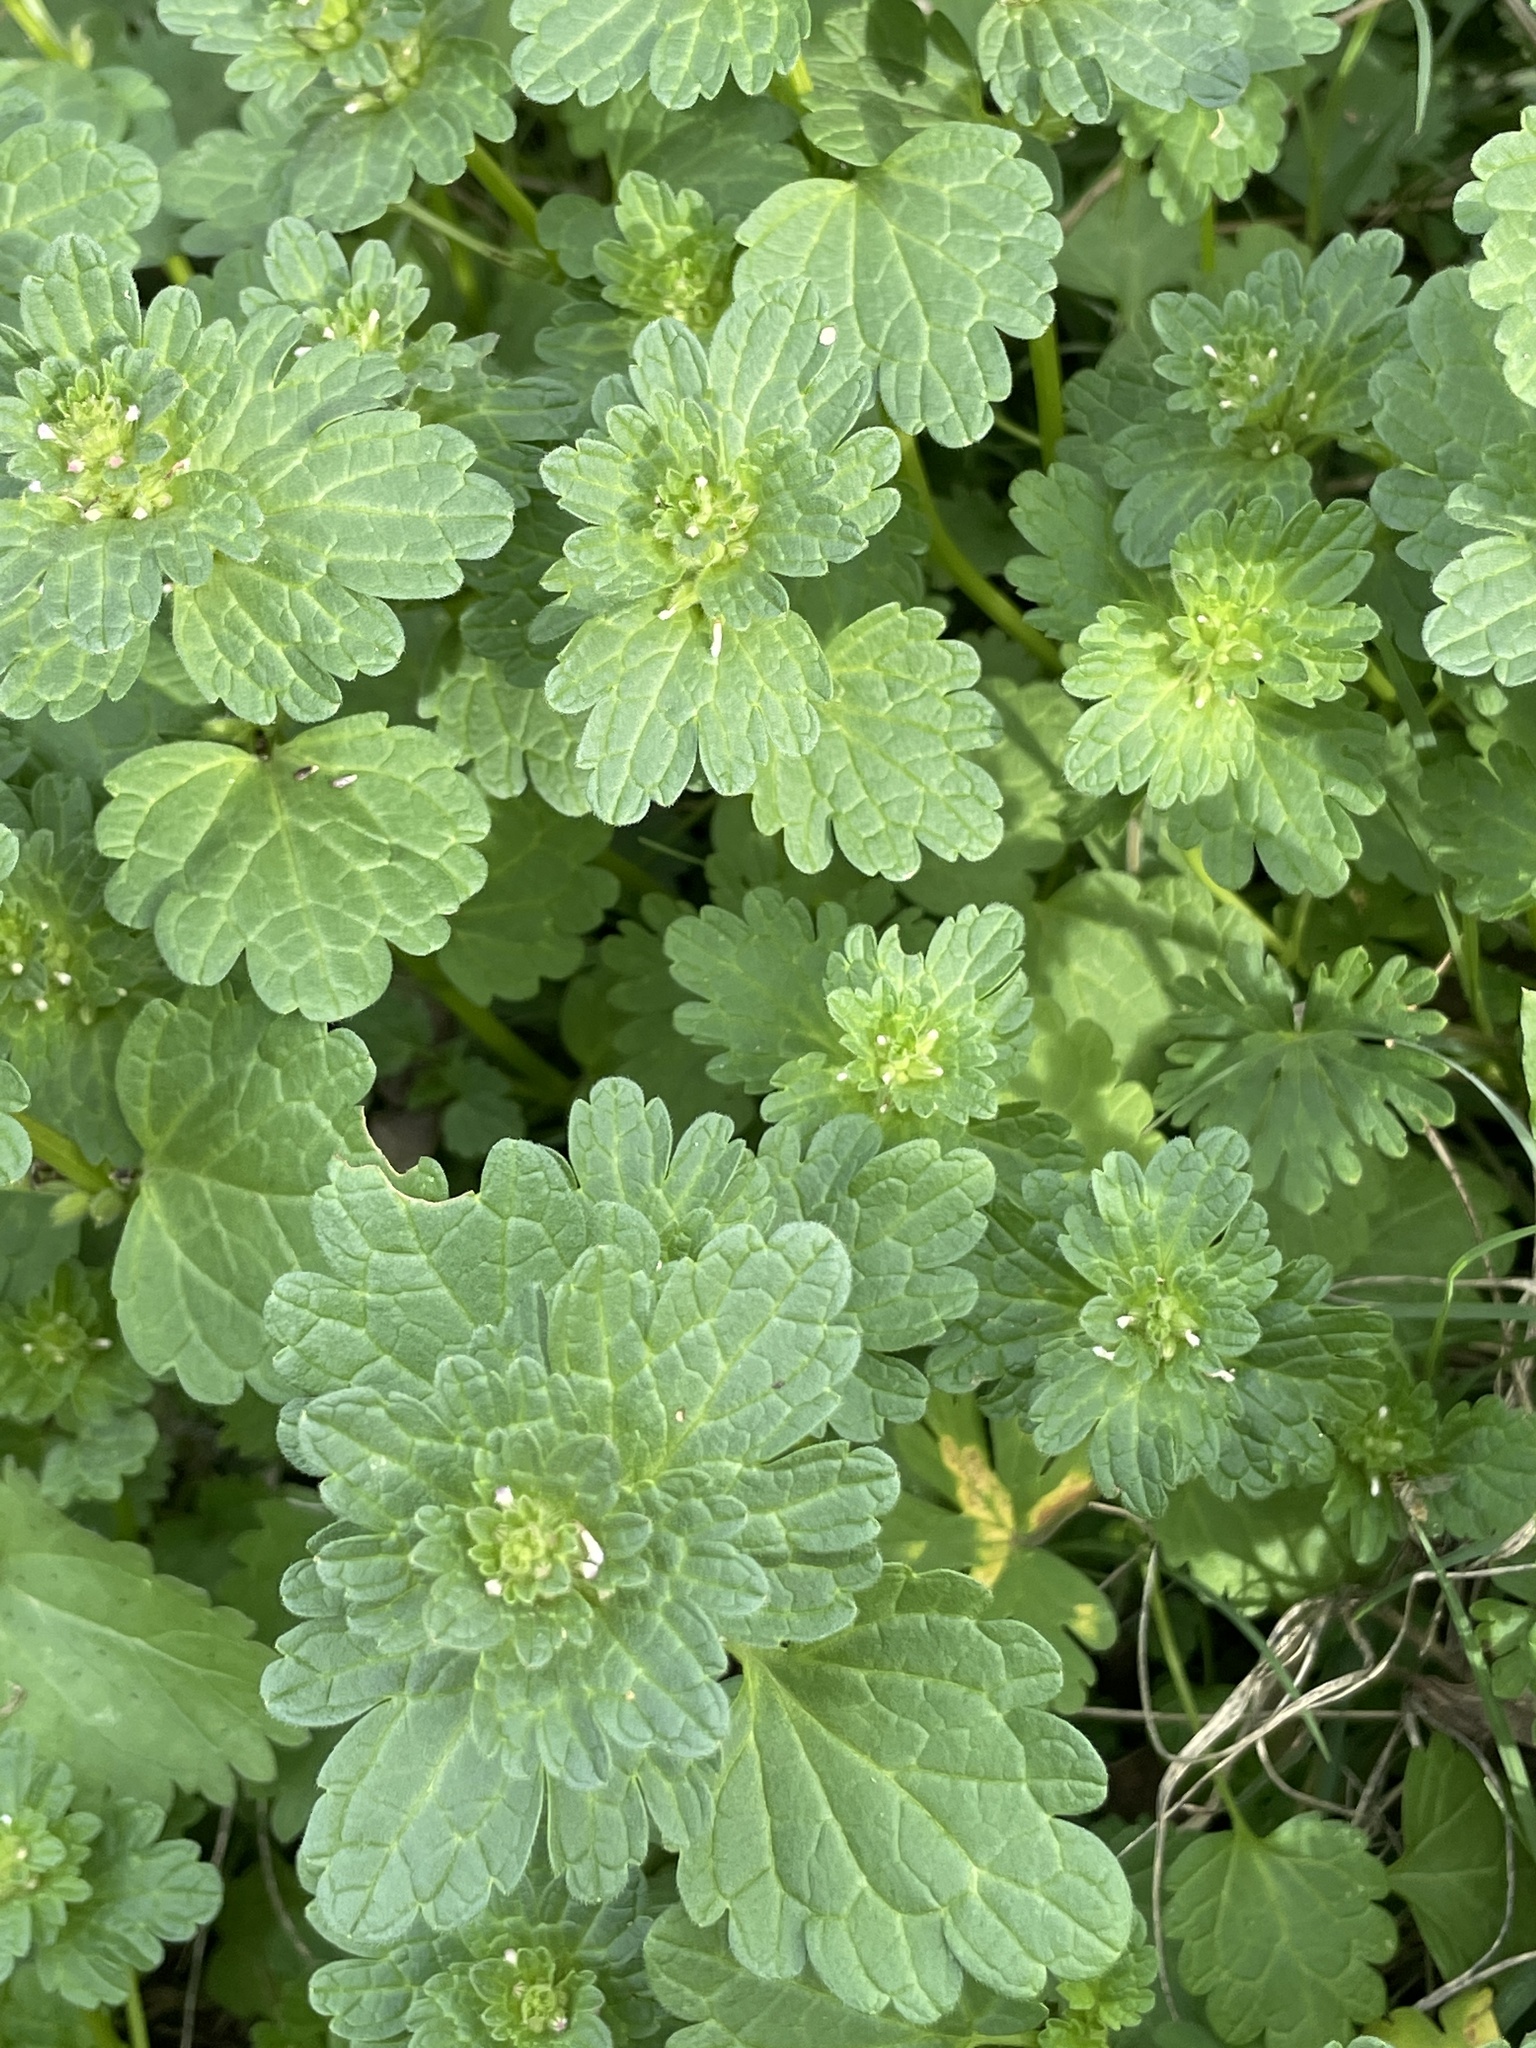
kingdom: Plantae
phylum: Tracheophyta
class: Magnoliopsida
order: Lamiales
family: Lamiaceae
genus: Lamium
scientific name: Lamium amplexicaule
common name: Henbit dead-nettle
